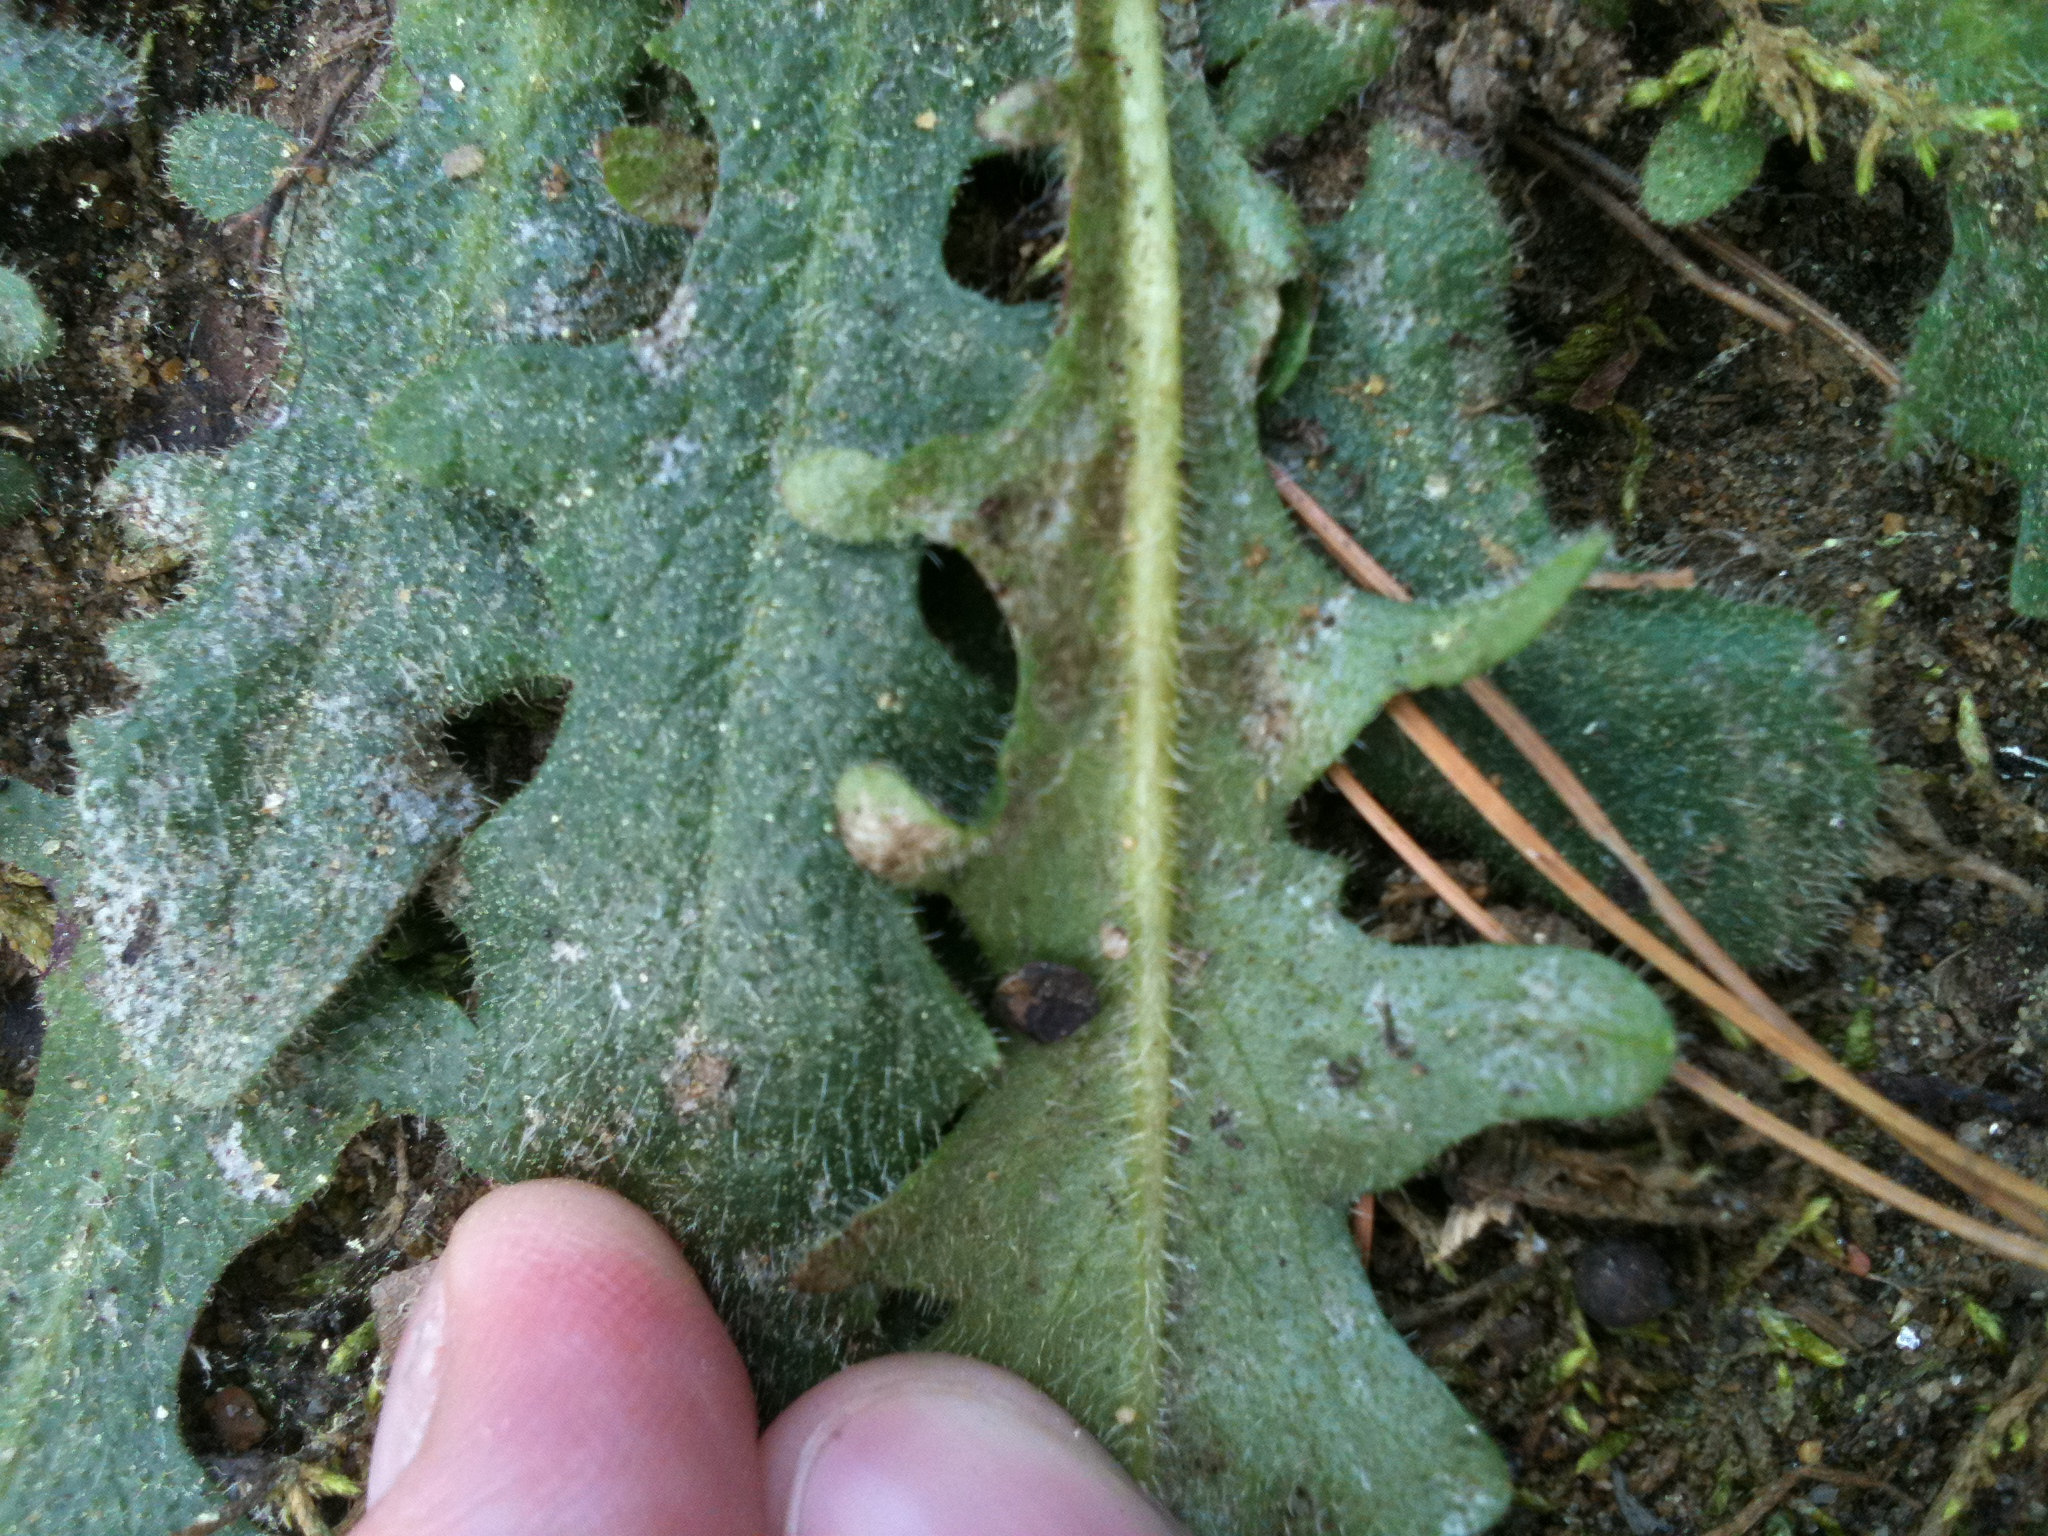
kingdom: Plantae
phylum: Tracheophyta
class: Magnoliopsida
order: Asterales
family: Asteraceae
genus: Hypochaeris
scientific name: Hypochaeris radicata
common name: Flatweed
